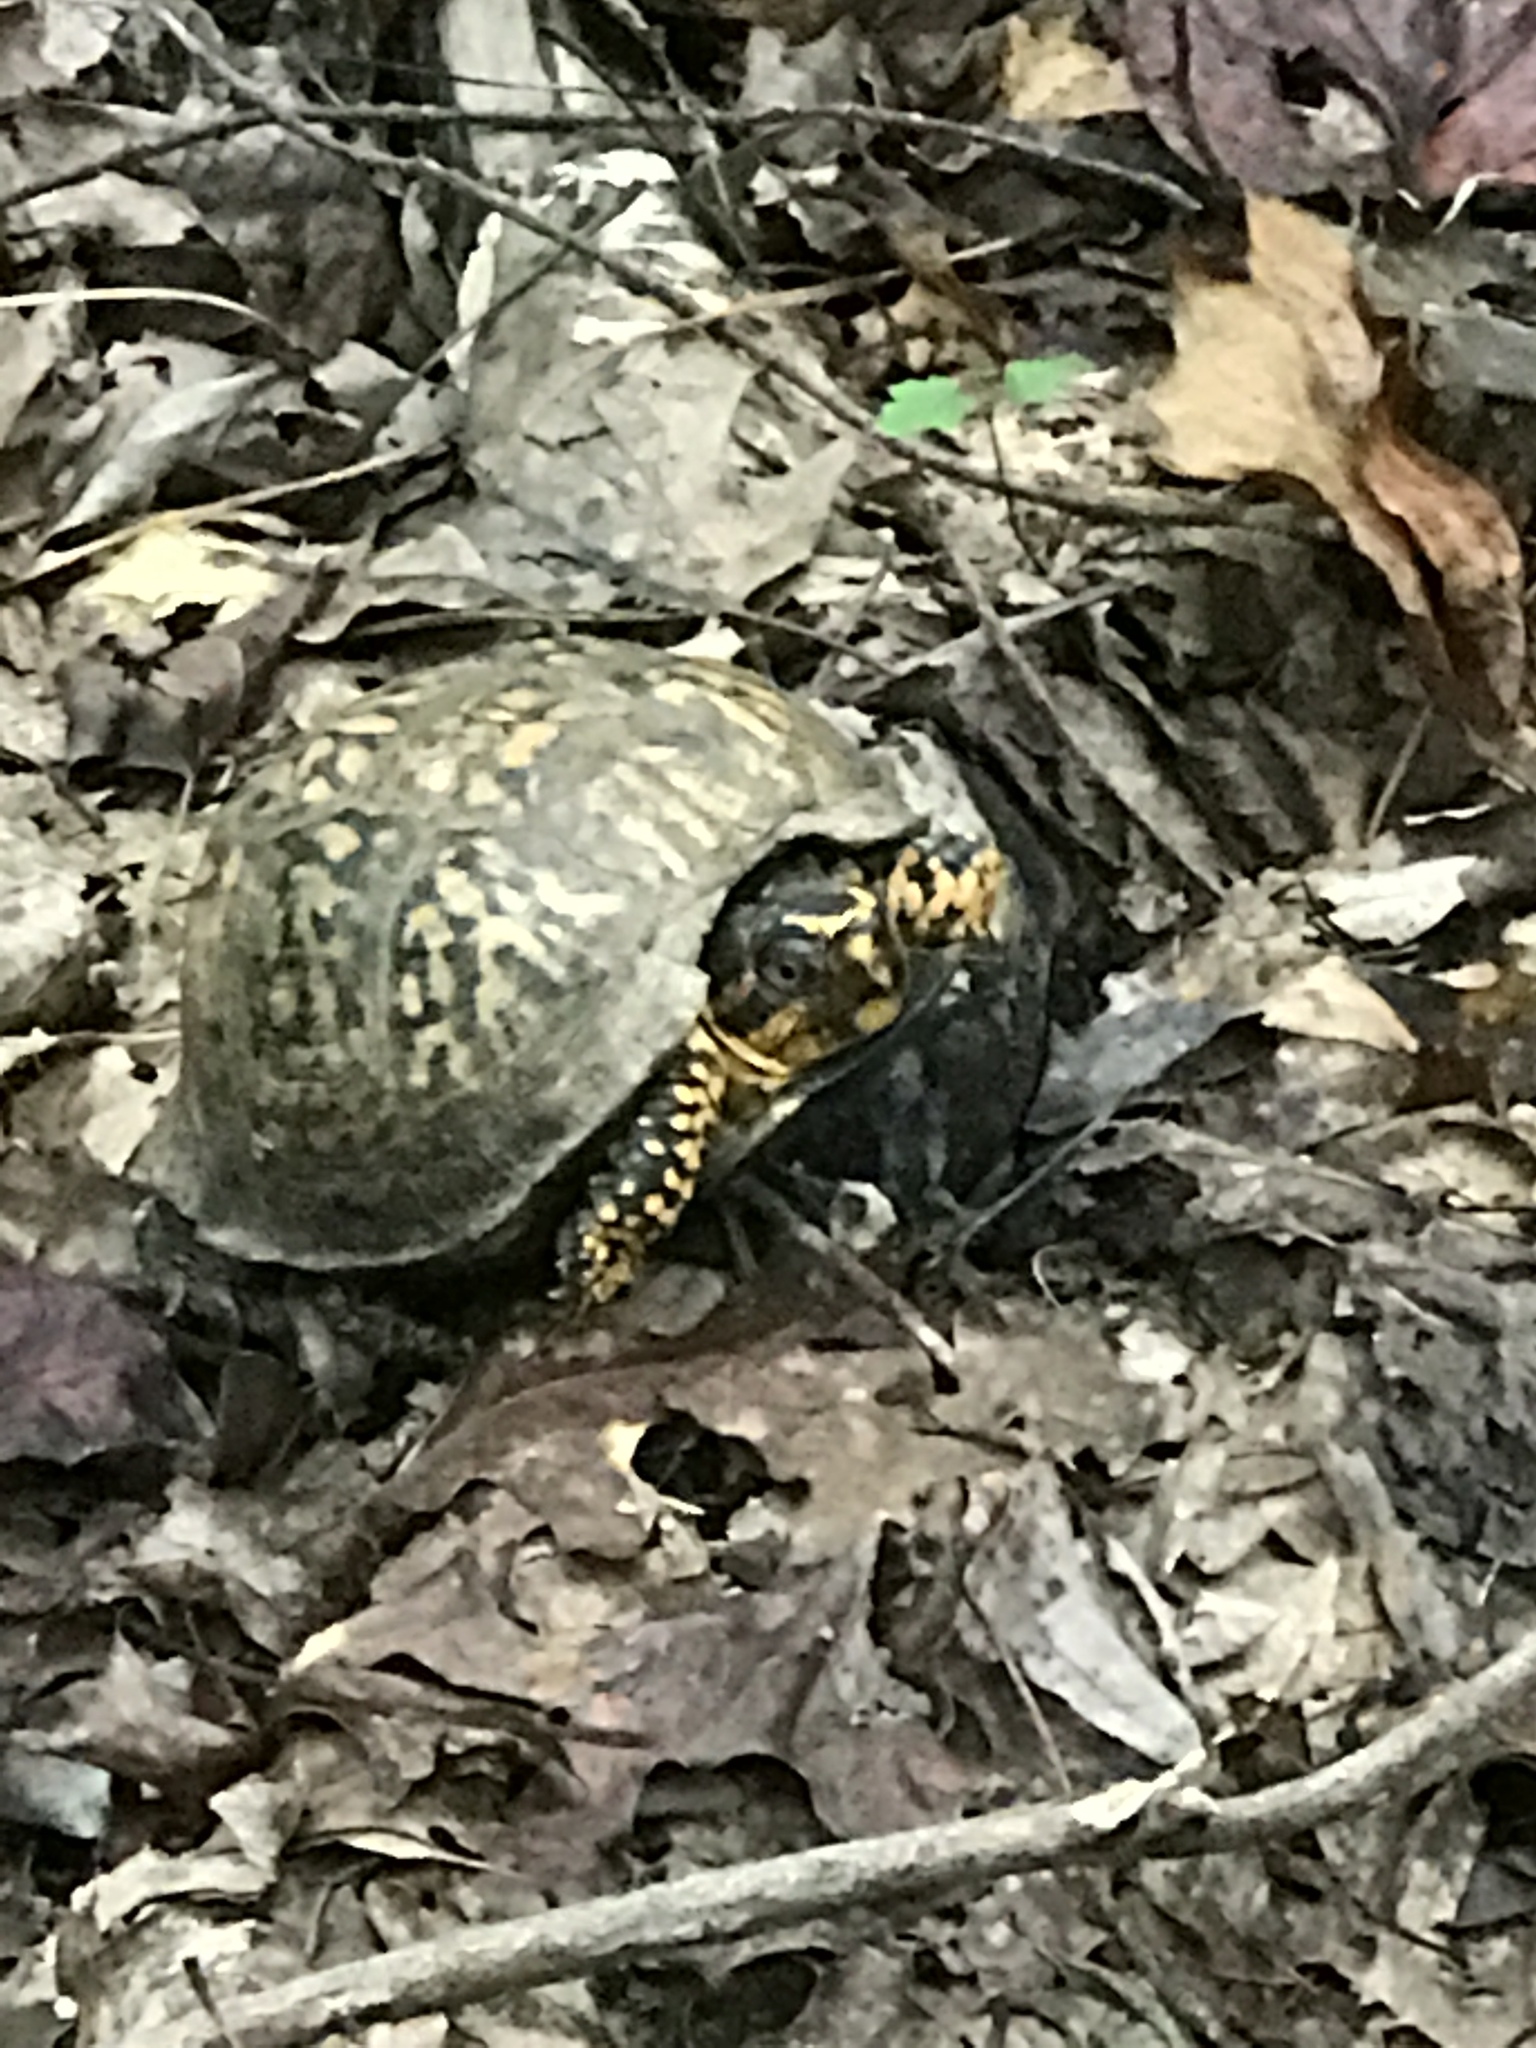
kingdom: Animalia
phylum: Chordata
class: Testudines
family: Emydidae
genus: Terrapene
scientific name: Terrapene carolina
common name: Common box turtle
